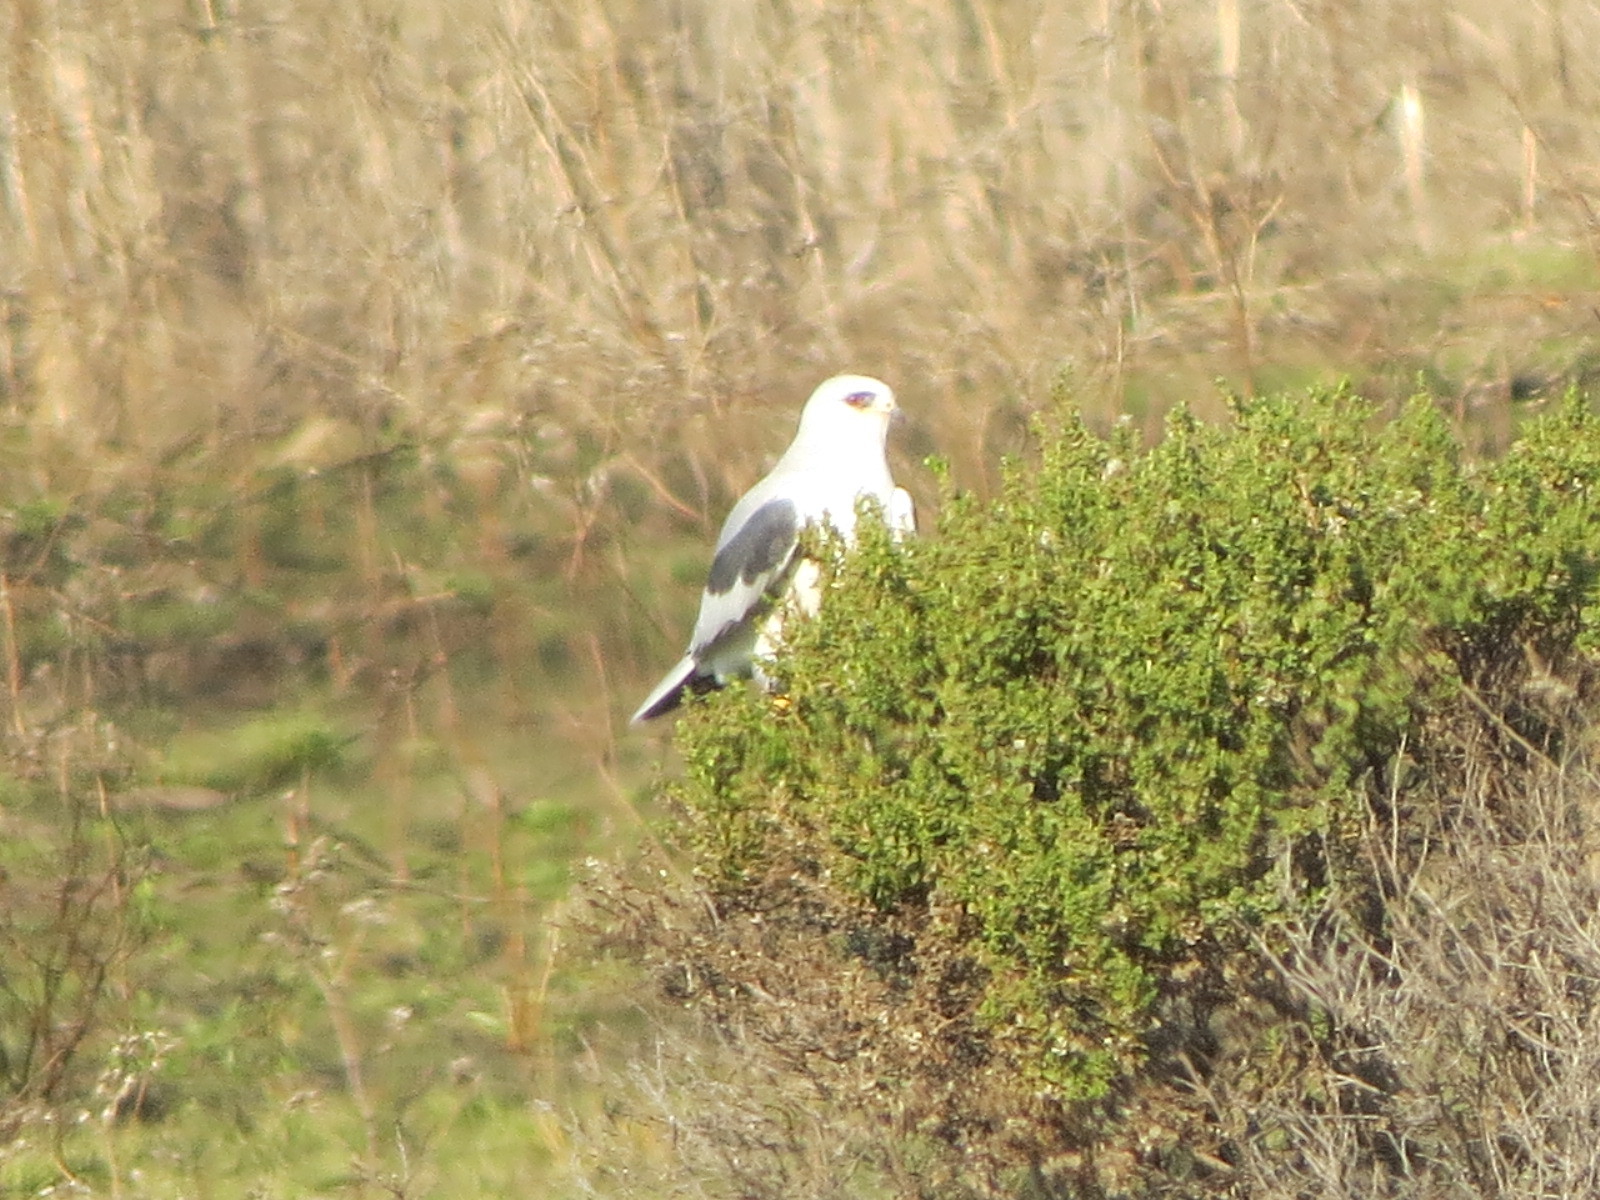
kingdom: Animalia
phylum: Chordata
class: Aves
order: Accipitriformes
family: Accipitridae
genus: Elanus
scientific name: Elanus leucurus
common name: White-tailed kite
